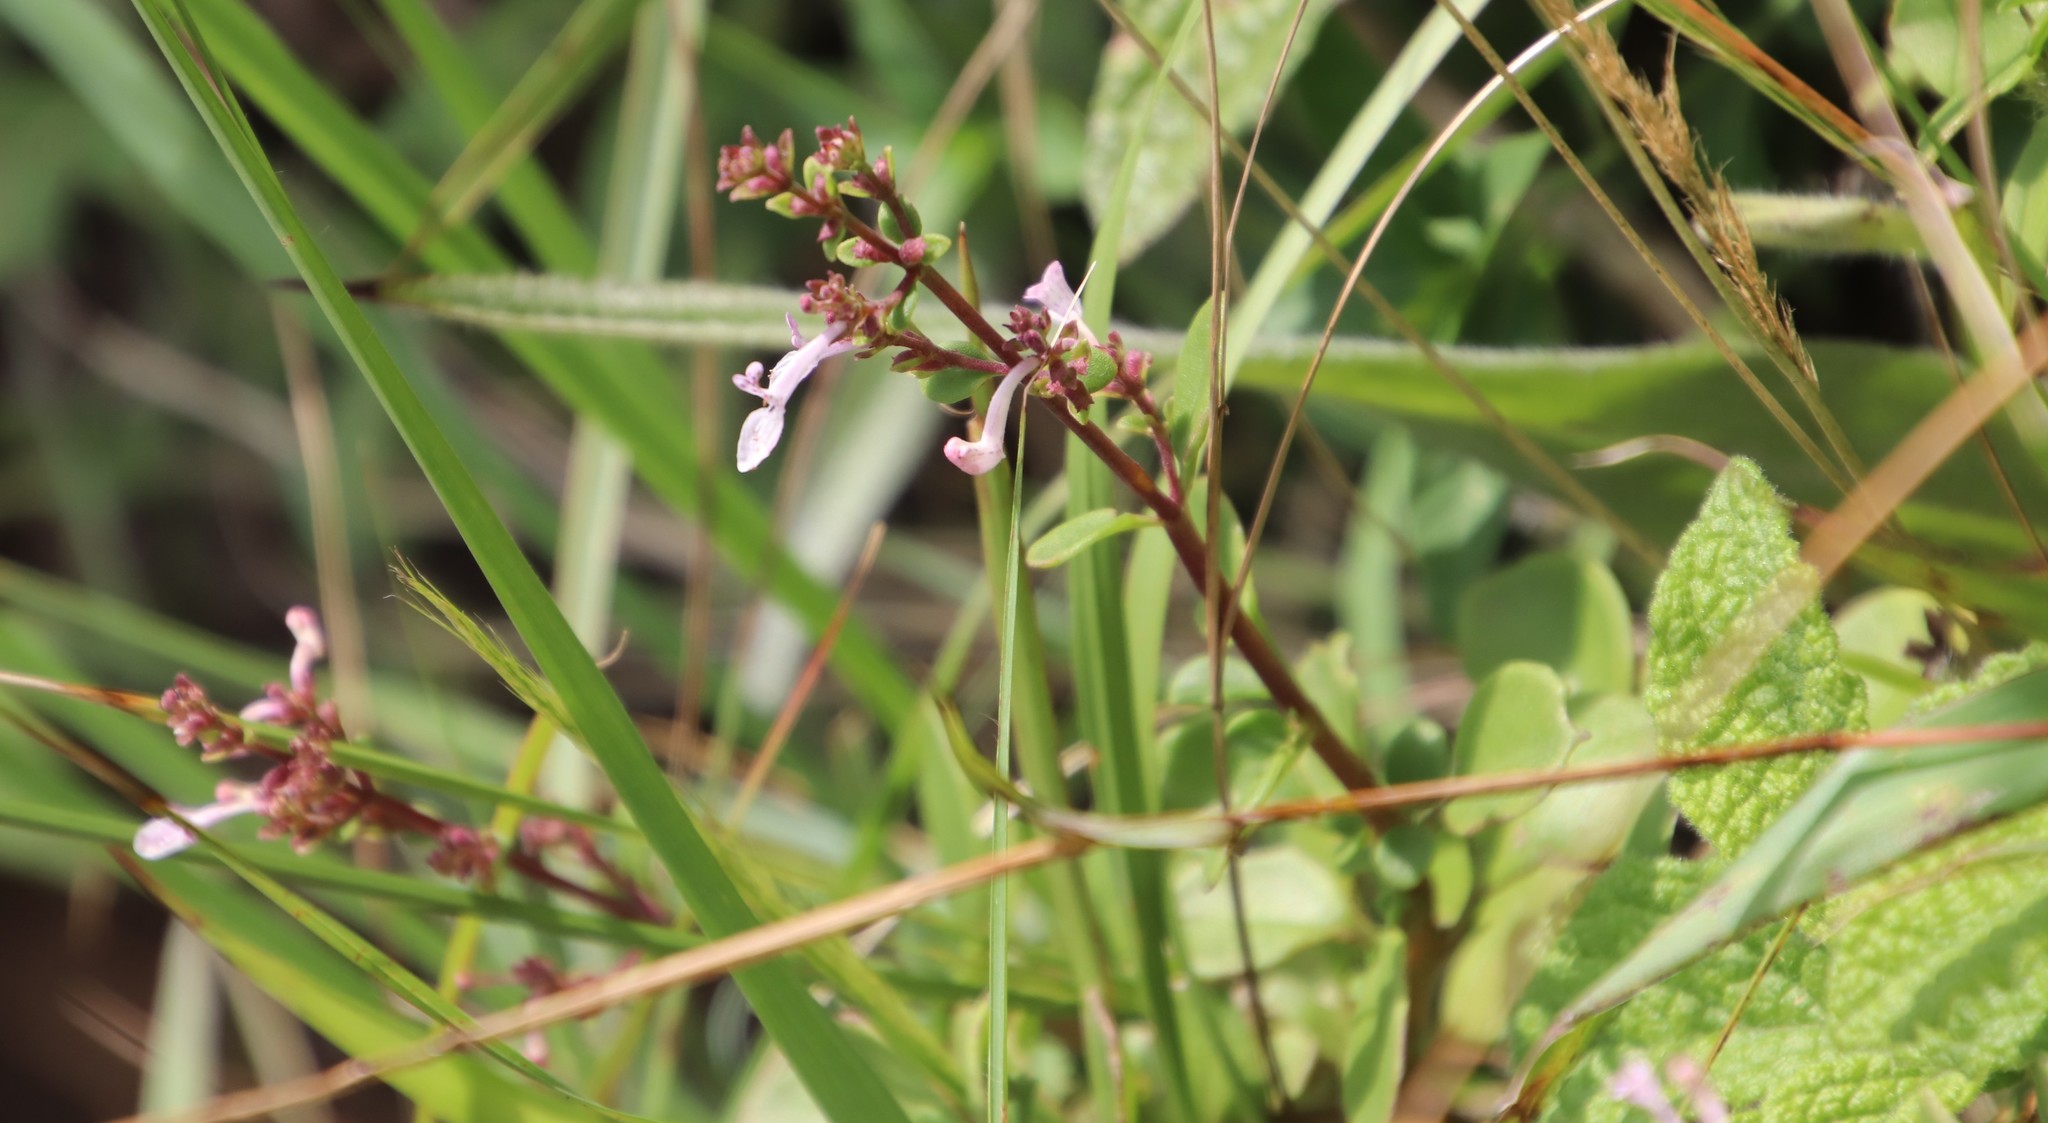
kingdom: Plantae
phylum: Tracheophyta
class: Magnoliopsida
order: Lamiales
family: Lamiaceae
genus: Aeollanthus
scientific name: Aeollanthus parvifolius
